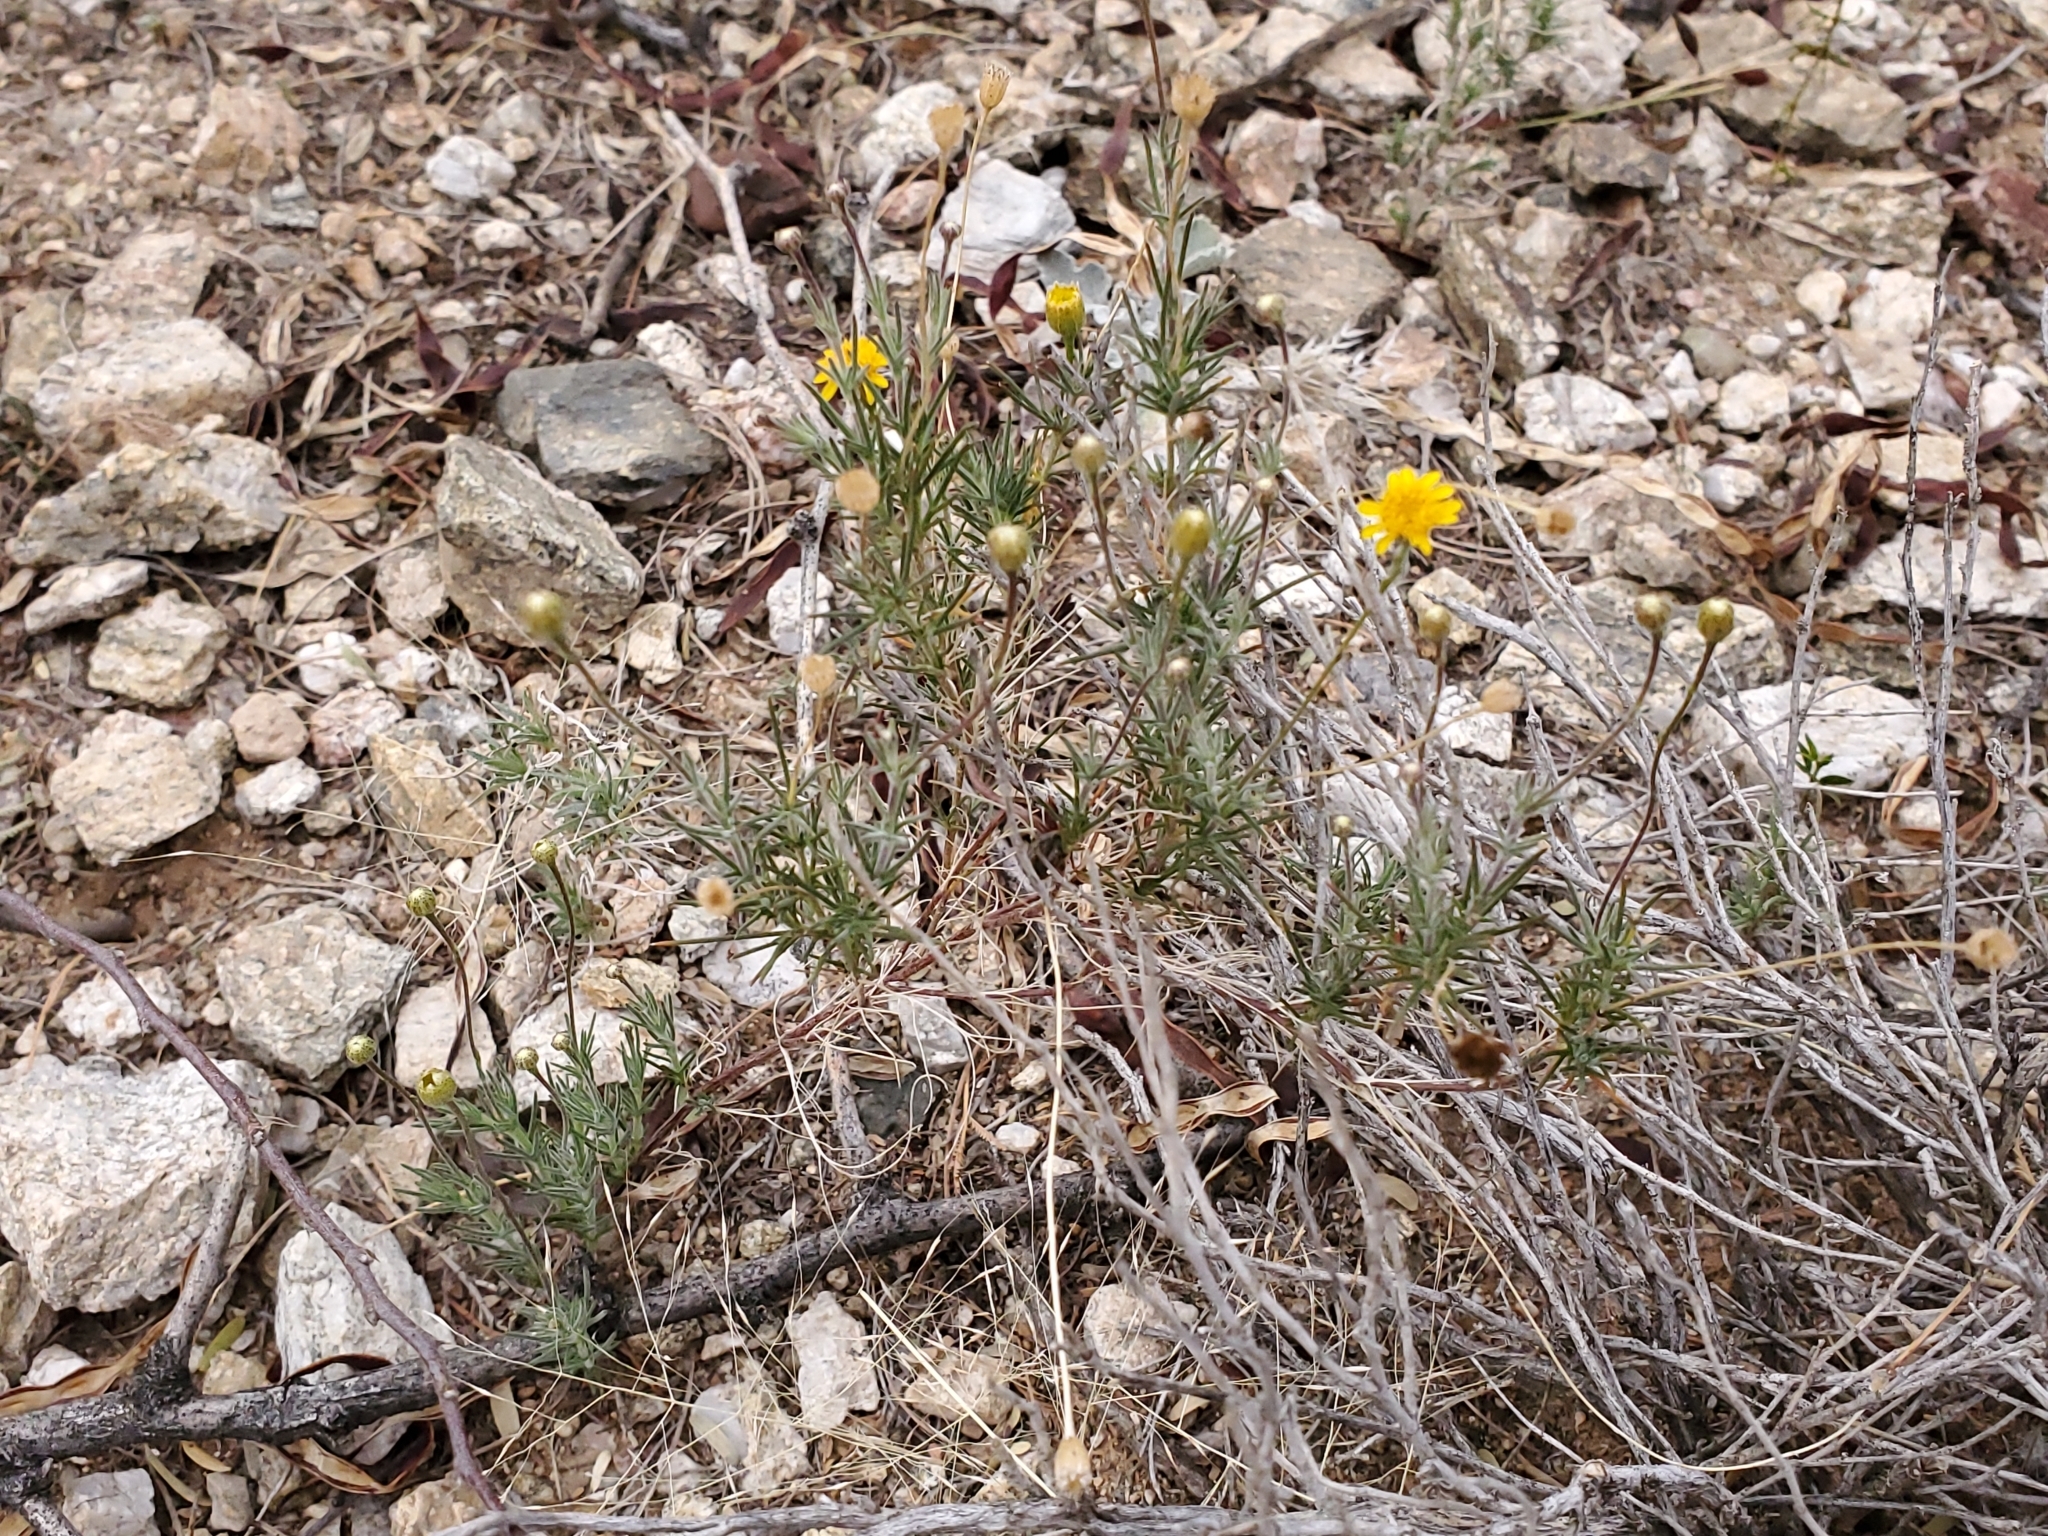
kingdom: Plantae
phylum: Tracheophyta
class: Magnoliopsida
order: Asterales
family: Asteraceae
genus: Thymophylla
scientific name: Thymophylla pentachaeta
